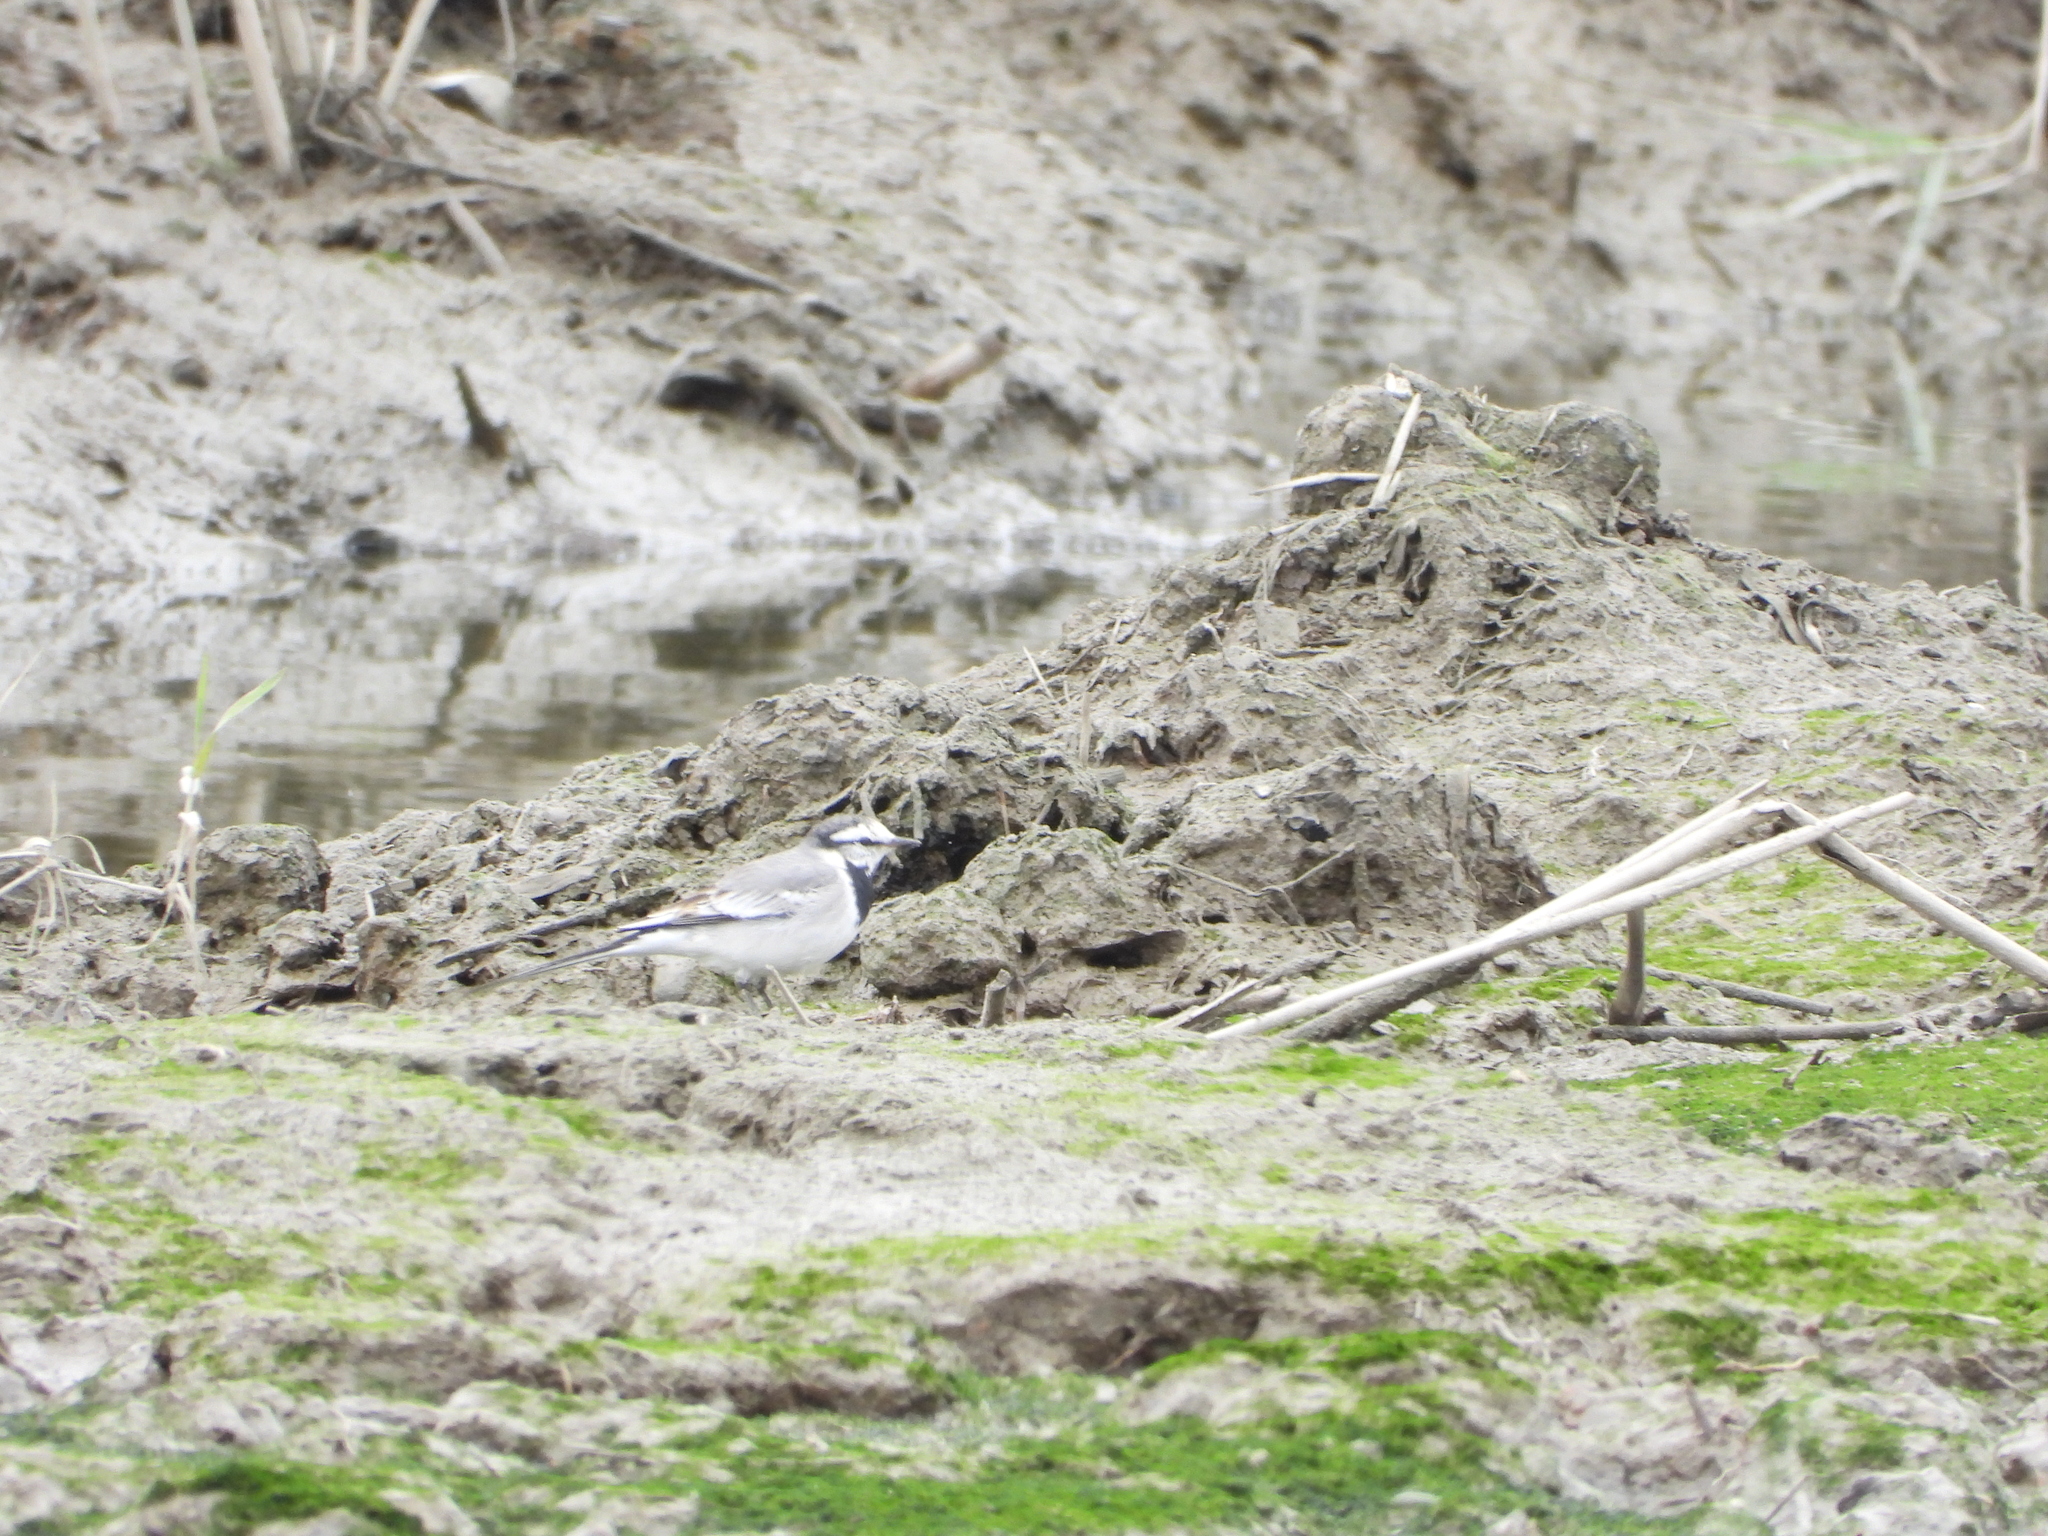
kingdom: Animalia
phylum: Chordata
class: Aves
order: Passeriformes
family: Motacillidae
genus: Motacilla
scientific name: Motacilla alba
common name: White wagtail
